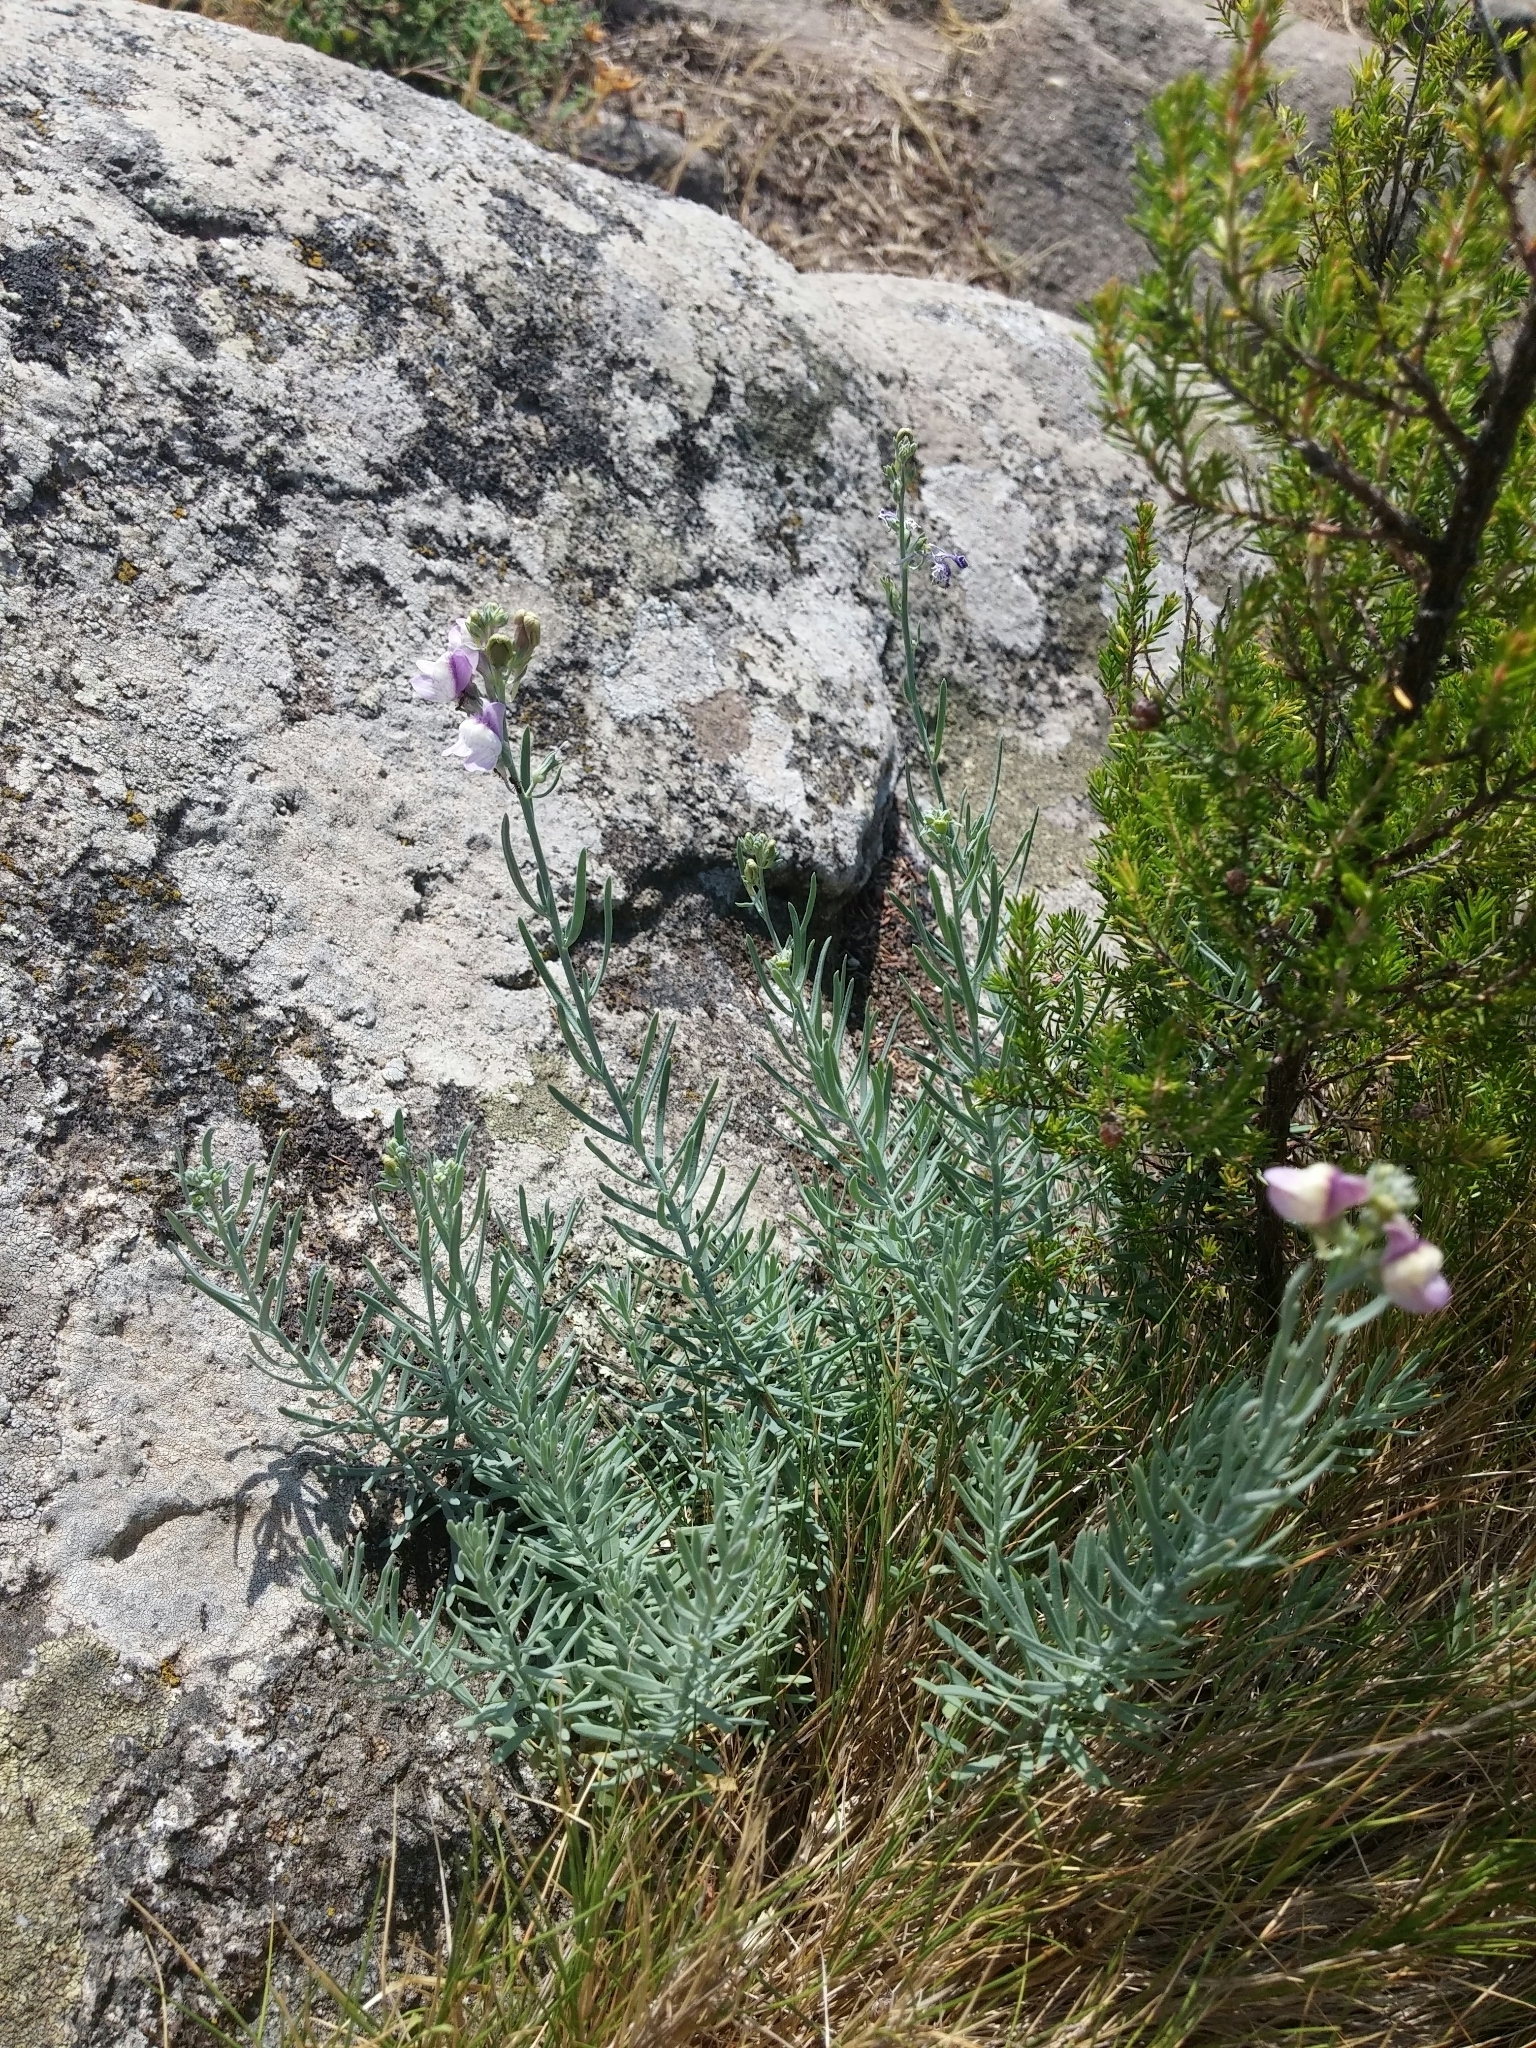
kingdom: Plantae
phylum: Tracheophyta
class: Magnoliopsida
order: Lamiales
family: Plantaginaceae
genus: Linaria
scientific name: Linaria capraria
